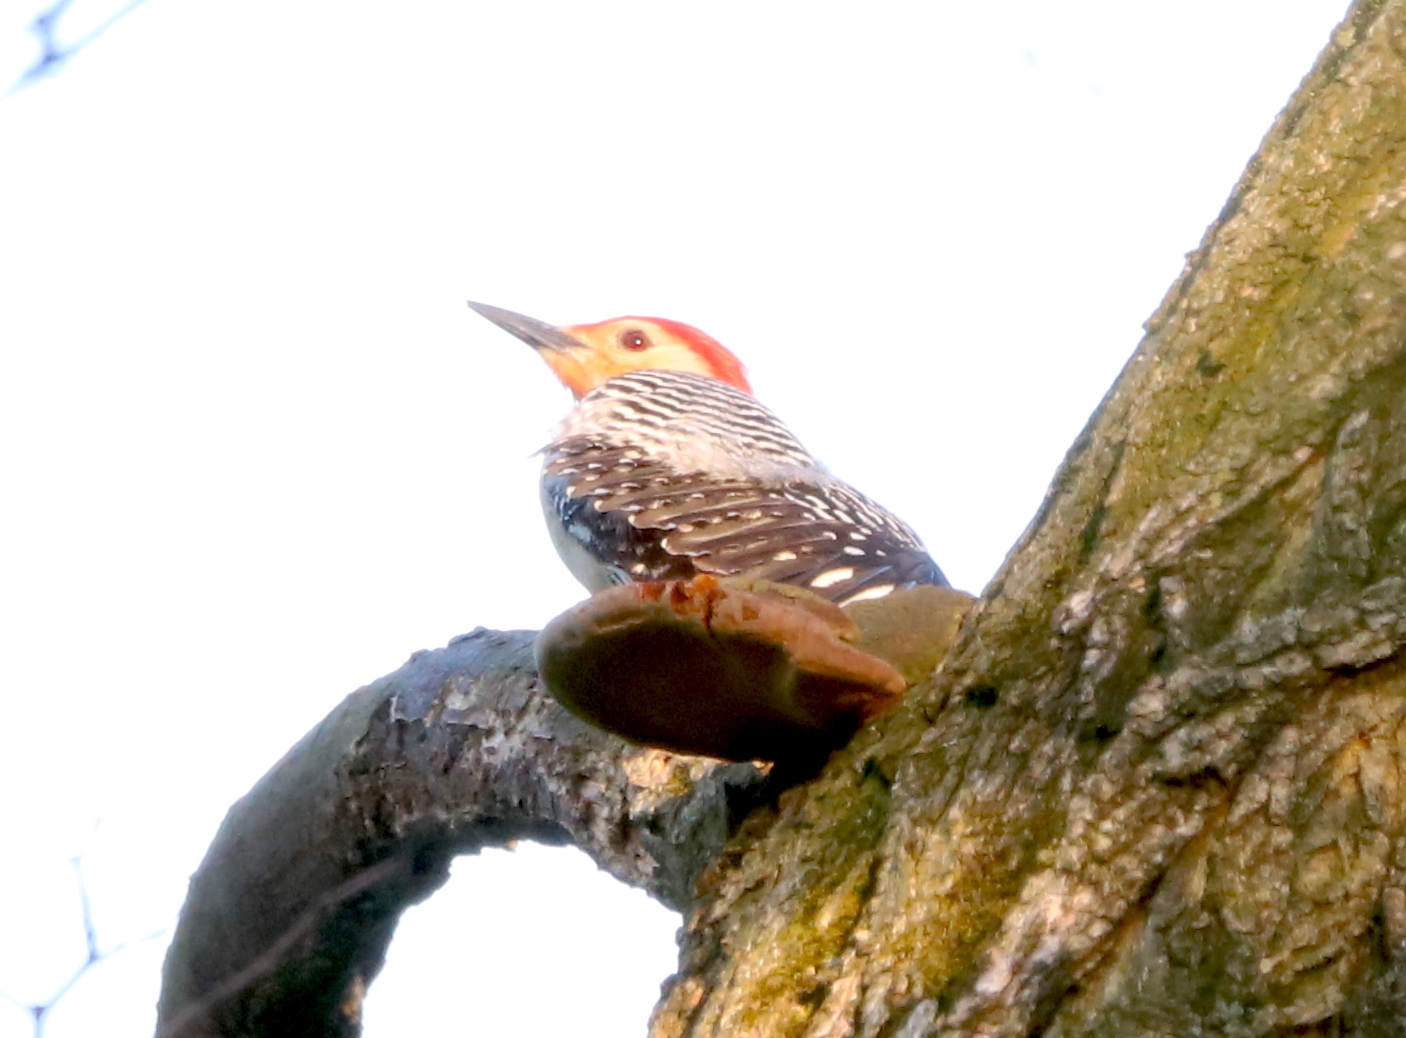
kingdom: Animalia
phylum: Chordata
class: Aves
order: Piciformes
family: Picidae
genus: Melanerpes
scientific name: Melanerpes carolinus
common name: Red-bellied woodpecker
